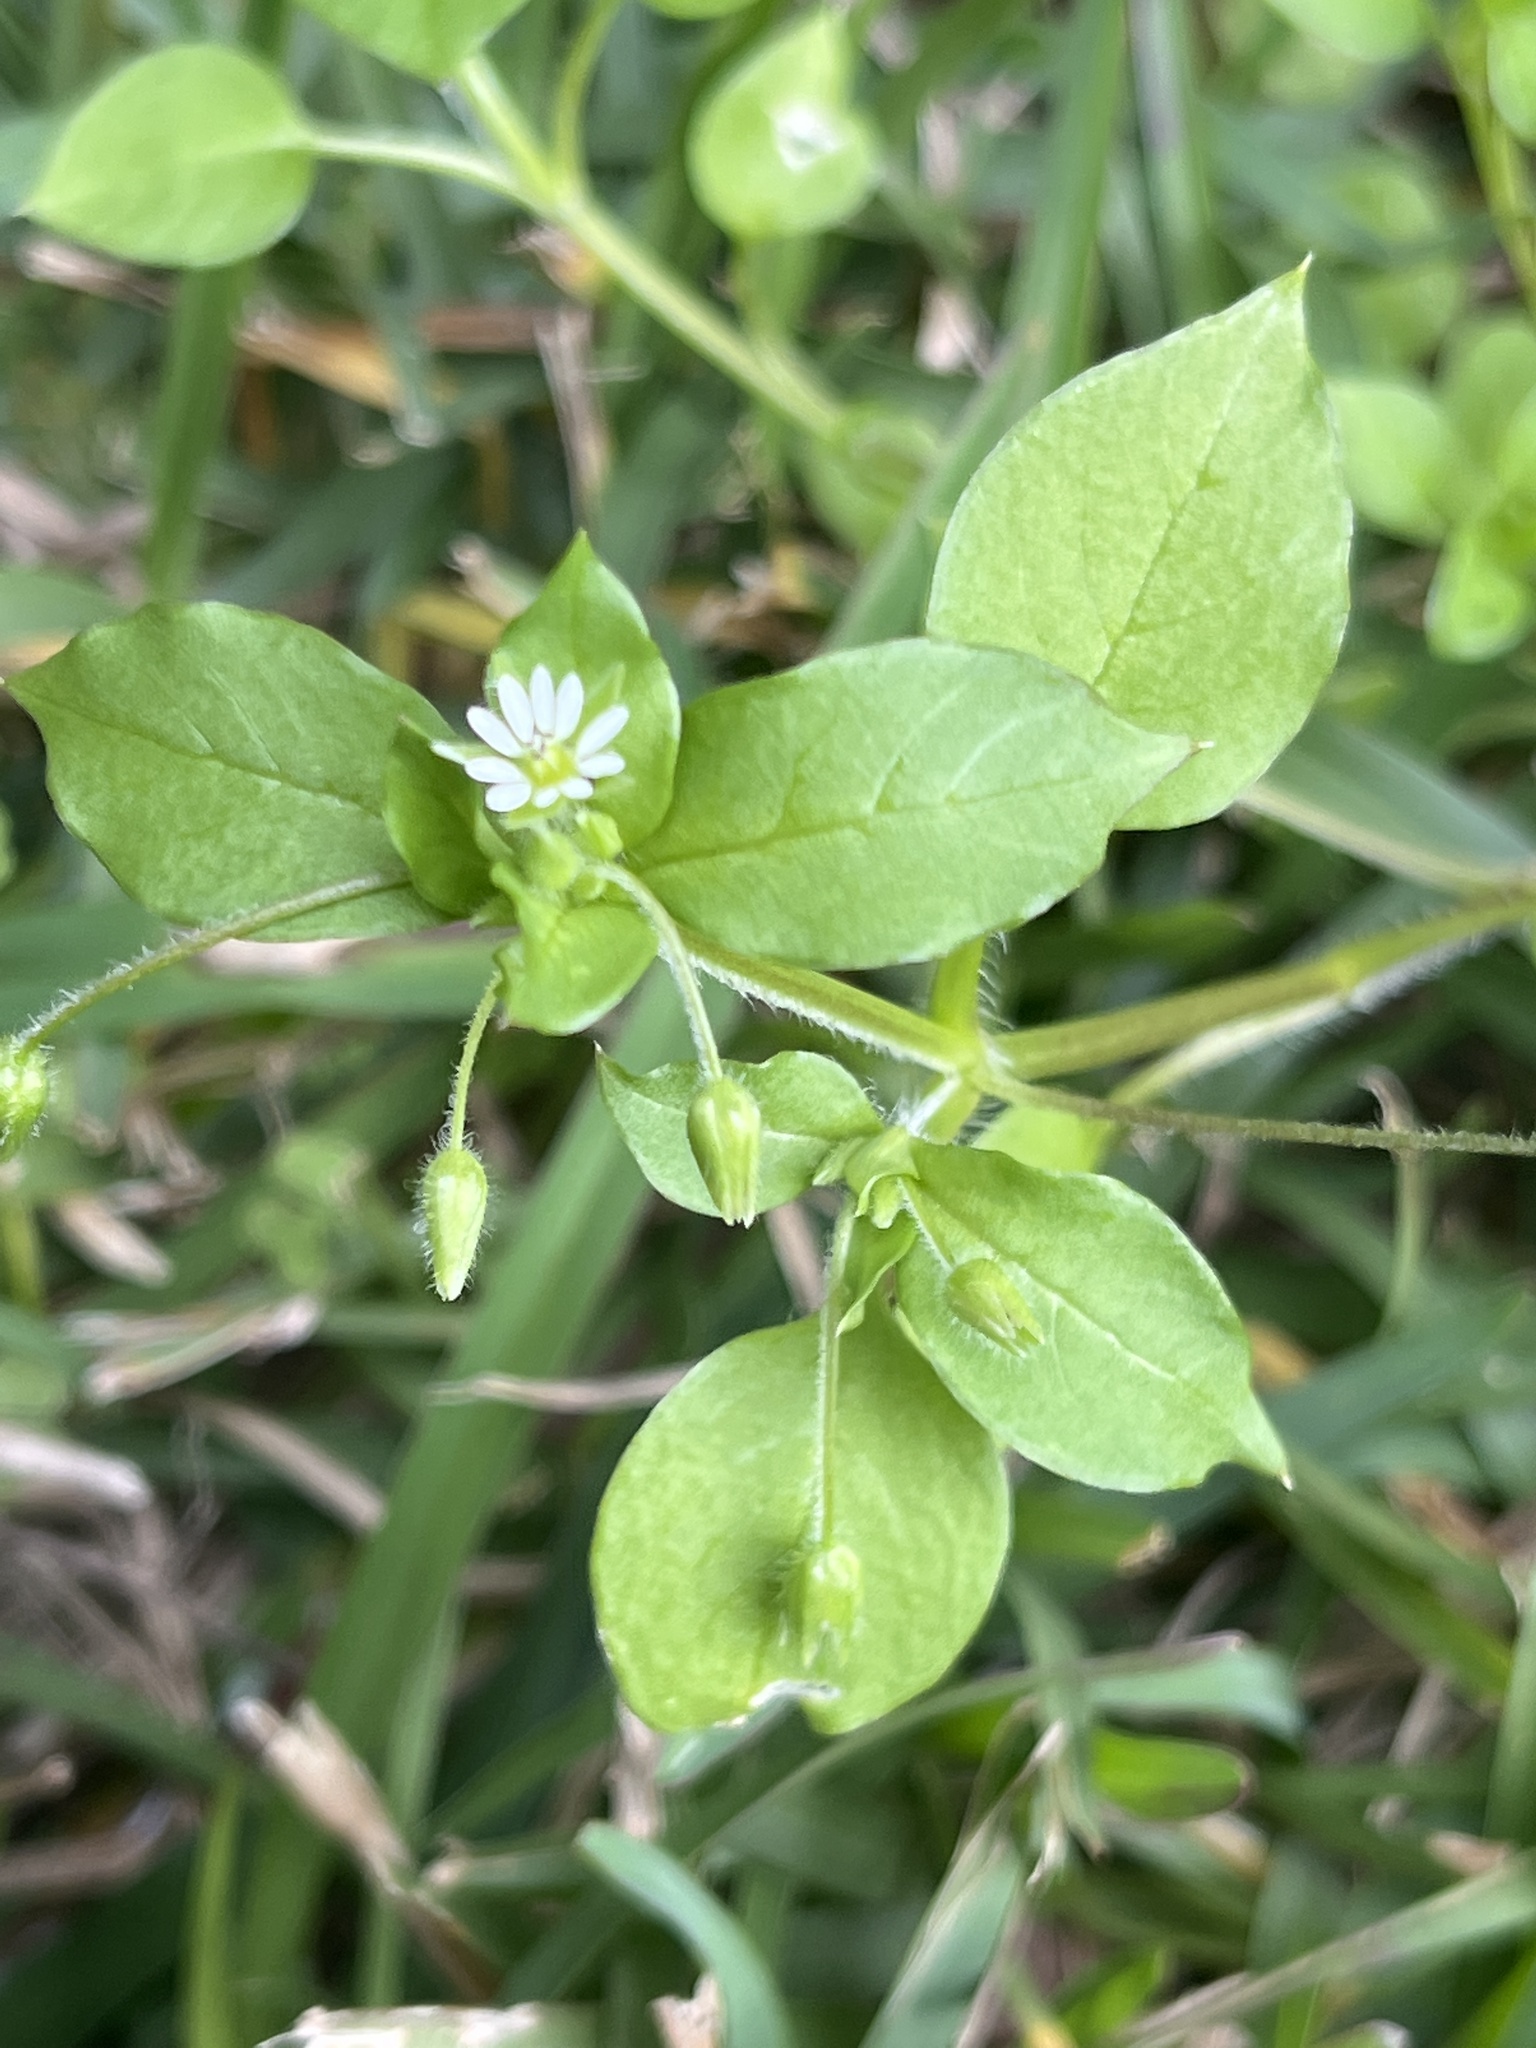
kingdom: Plantae
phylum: Tracheophyta
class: Magnoliopsida
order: Caryophyllales
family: Caryophyllaceae
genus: Stellaria
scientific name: Stellaria media
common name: Common chickweed
